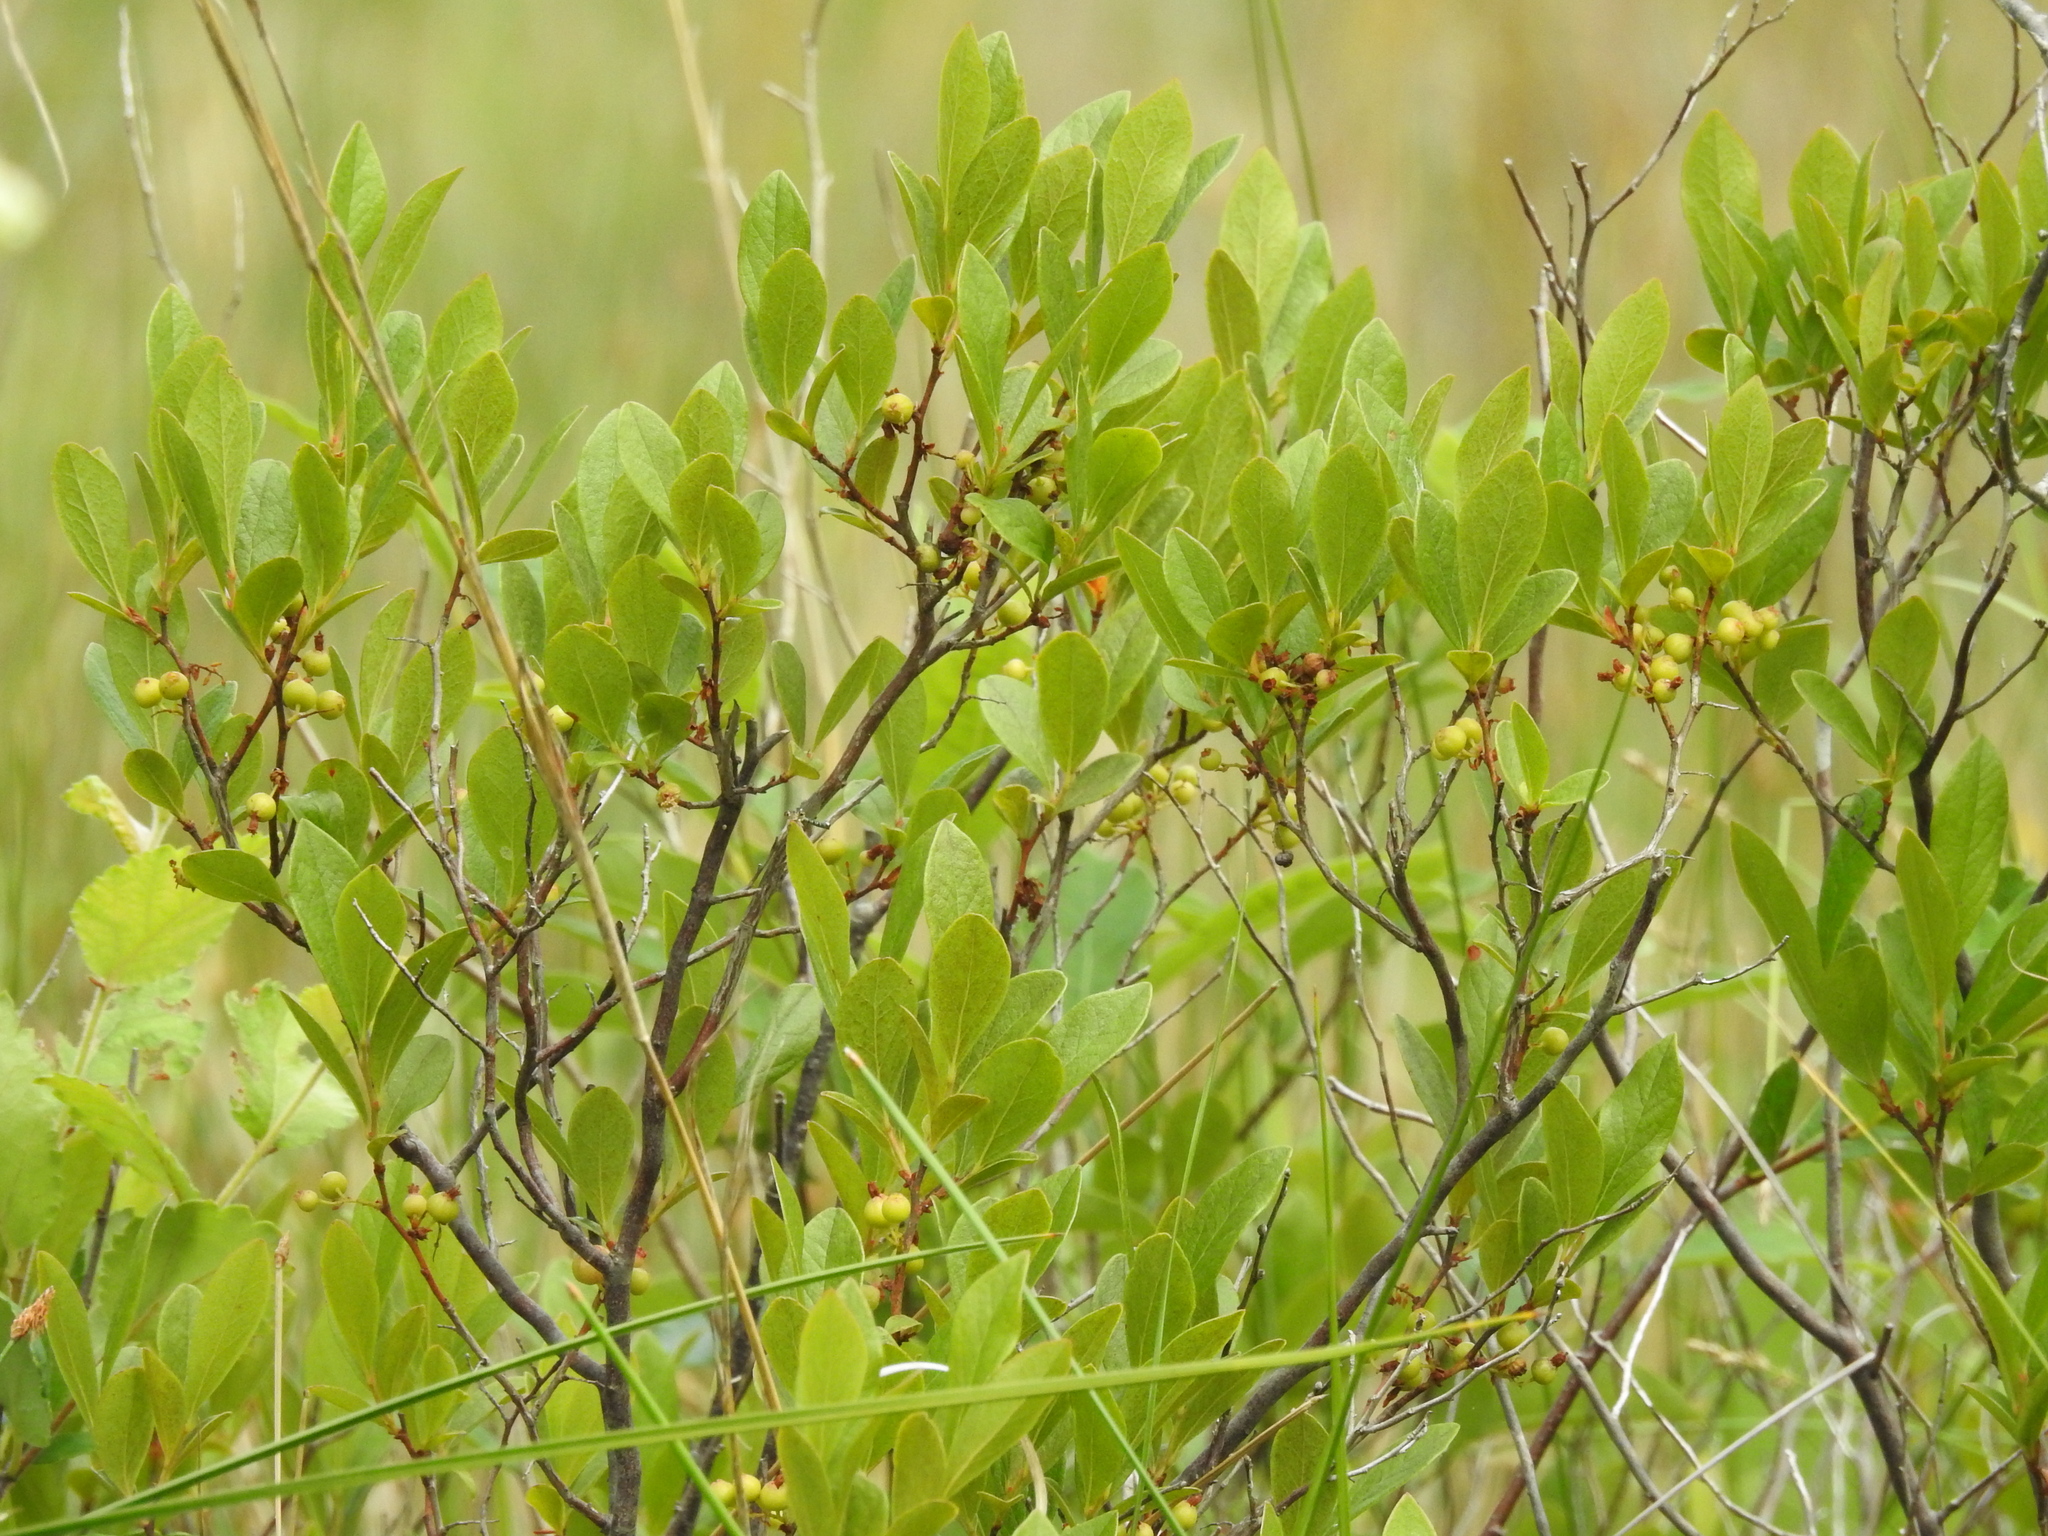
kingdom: Plantae
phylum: Tracheophyta
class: Magnoliopsida
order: Ericales
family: Ericaceae
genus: Gaylussacia
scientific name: Gaylussacia baccata
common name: Black huckleberry
